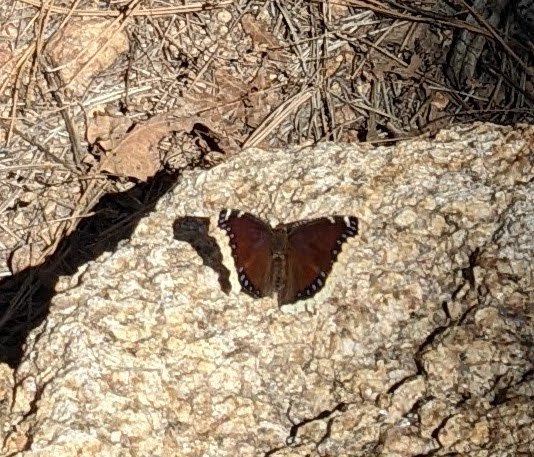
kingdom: Animalia
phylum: Arthropoda
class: Insecta
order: Lepidoptera
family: Nymphalidae
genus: Nymphalis
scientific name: Nymphalis antiopa
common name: Camberwell beauty
